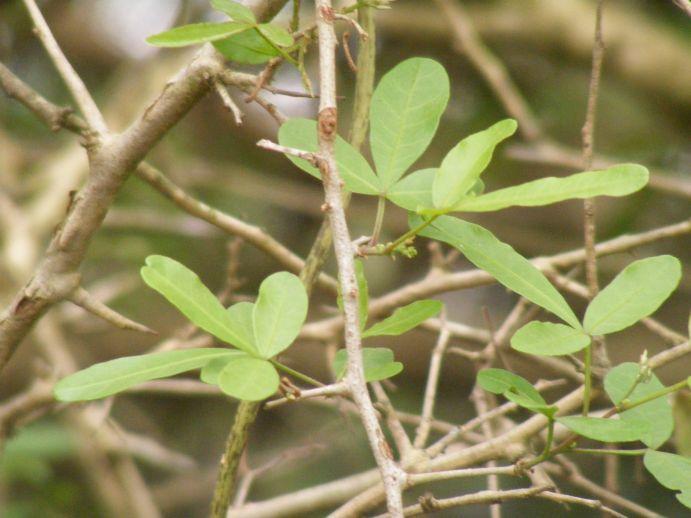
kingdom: Plantae
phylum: Tracheophyta
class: Magnoliopsida
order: Sapindales
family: Anacardiaceae
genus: Searsia
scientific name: Searsia gueinzii
